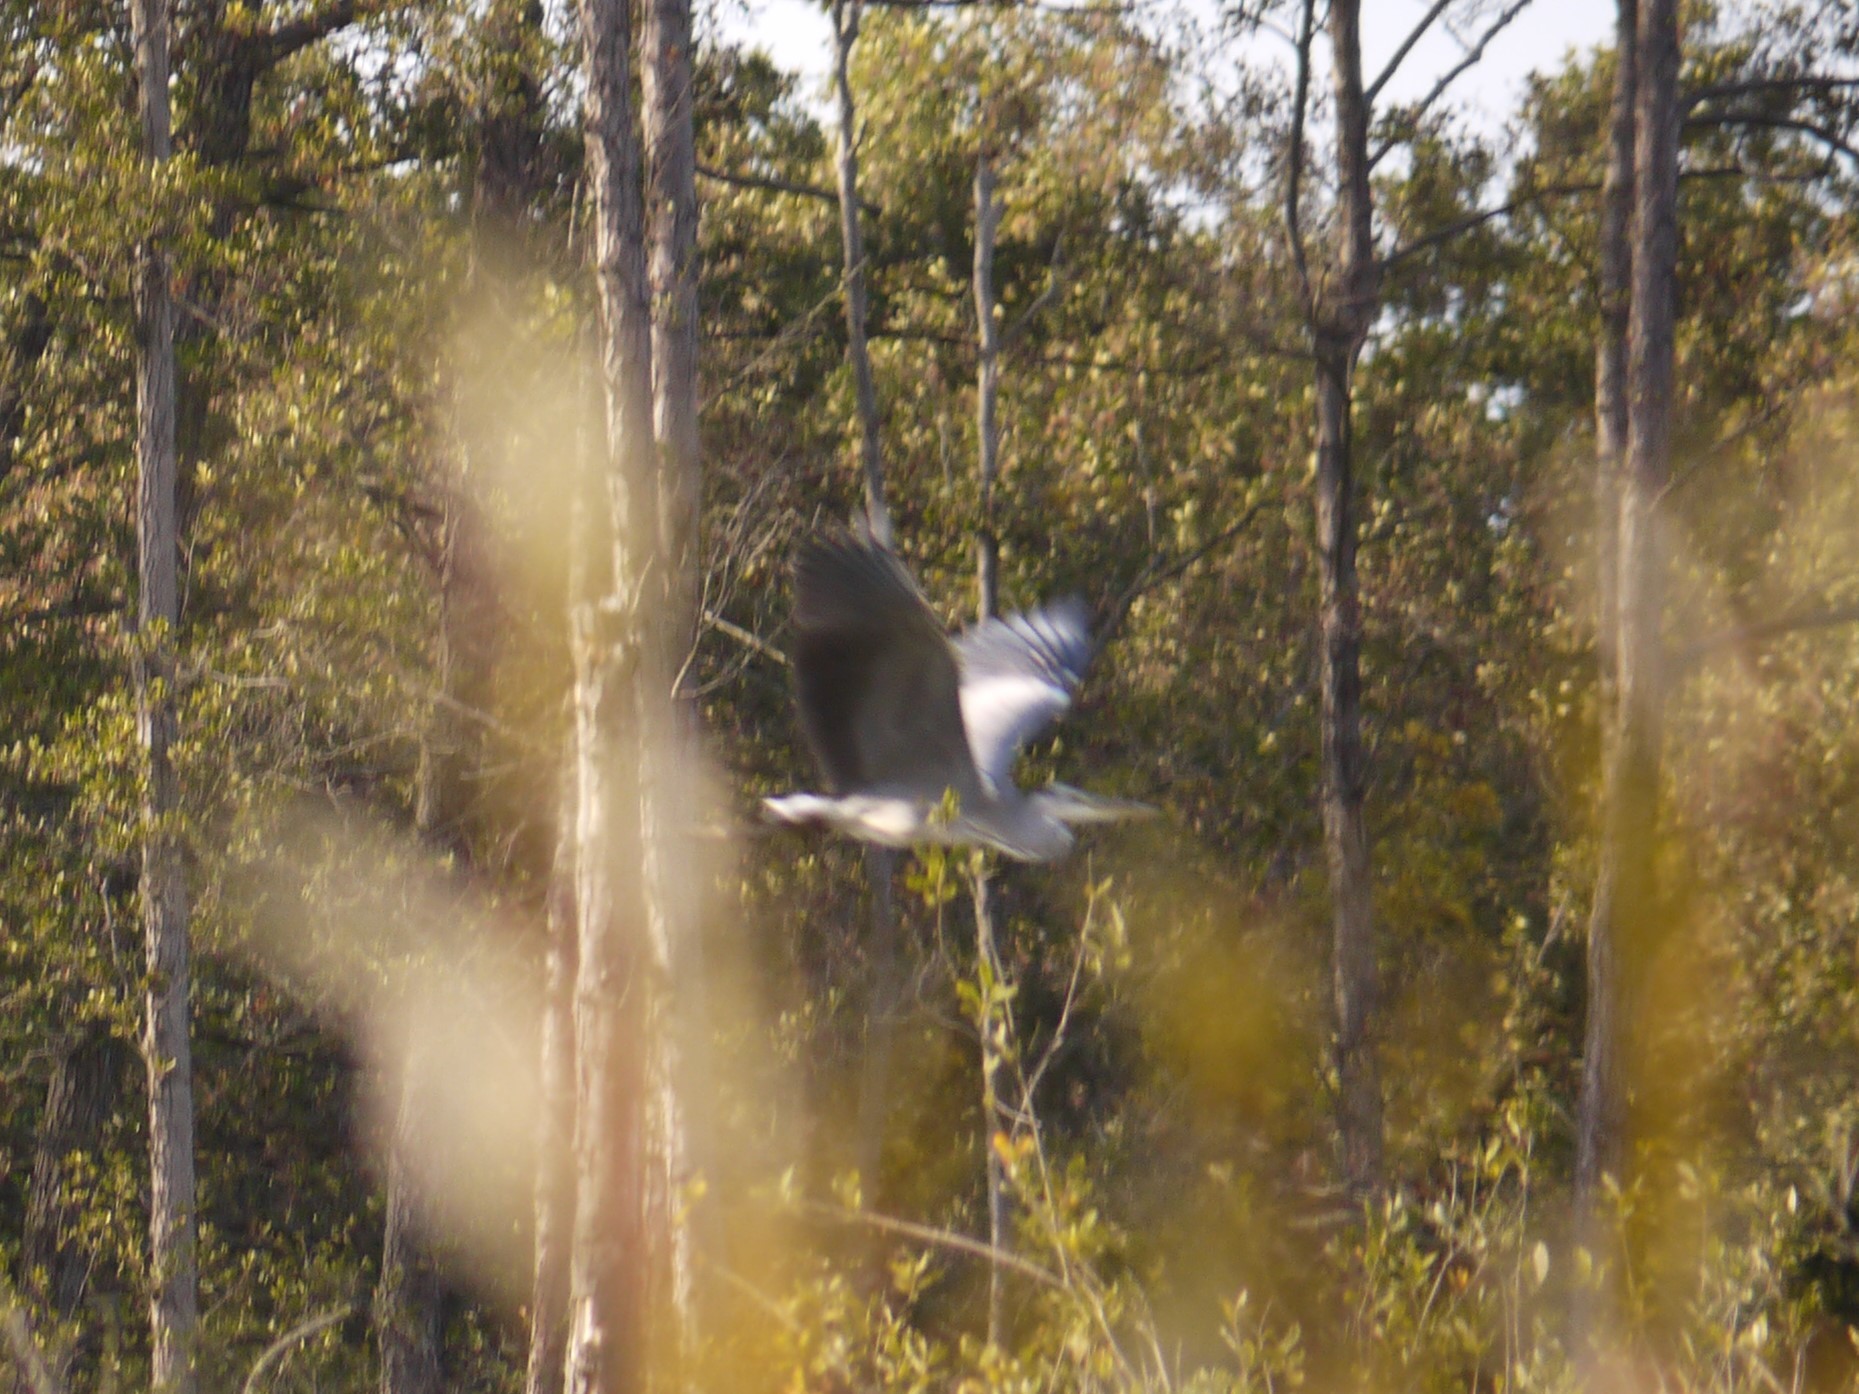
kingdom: Animalia
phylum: Chordata
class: Aves
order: Pelecaniformes
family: Ardeidae
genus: Ardea
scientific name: Ardea cinerea
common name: Grey heron
